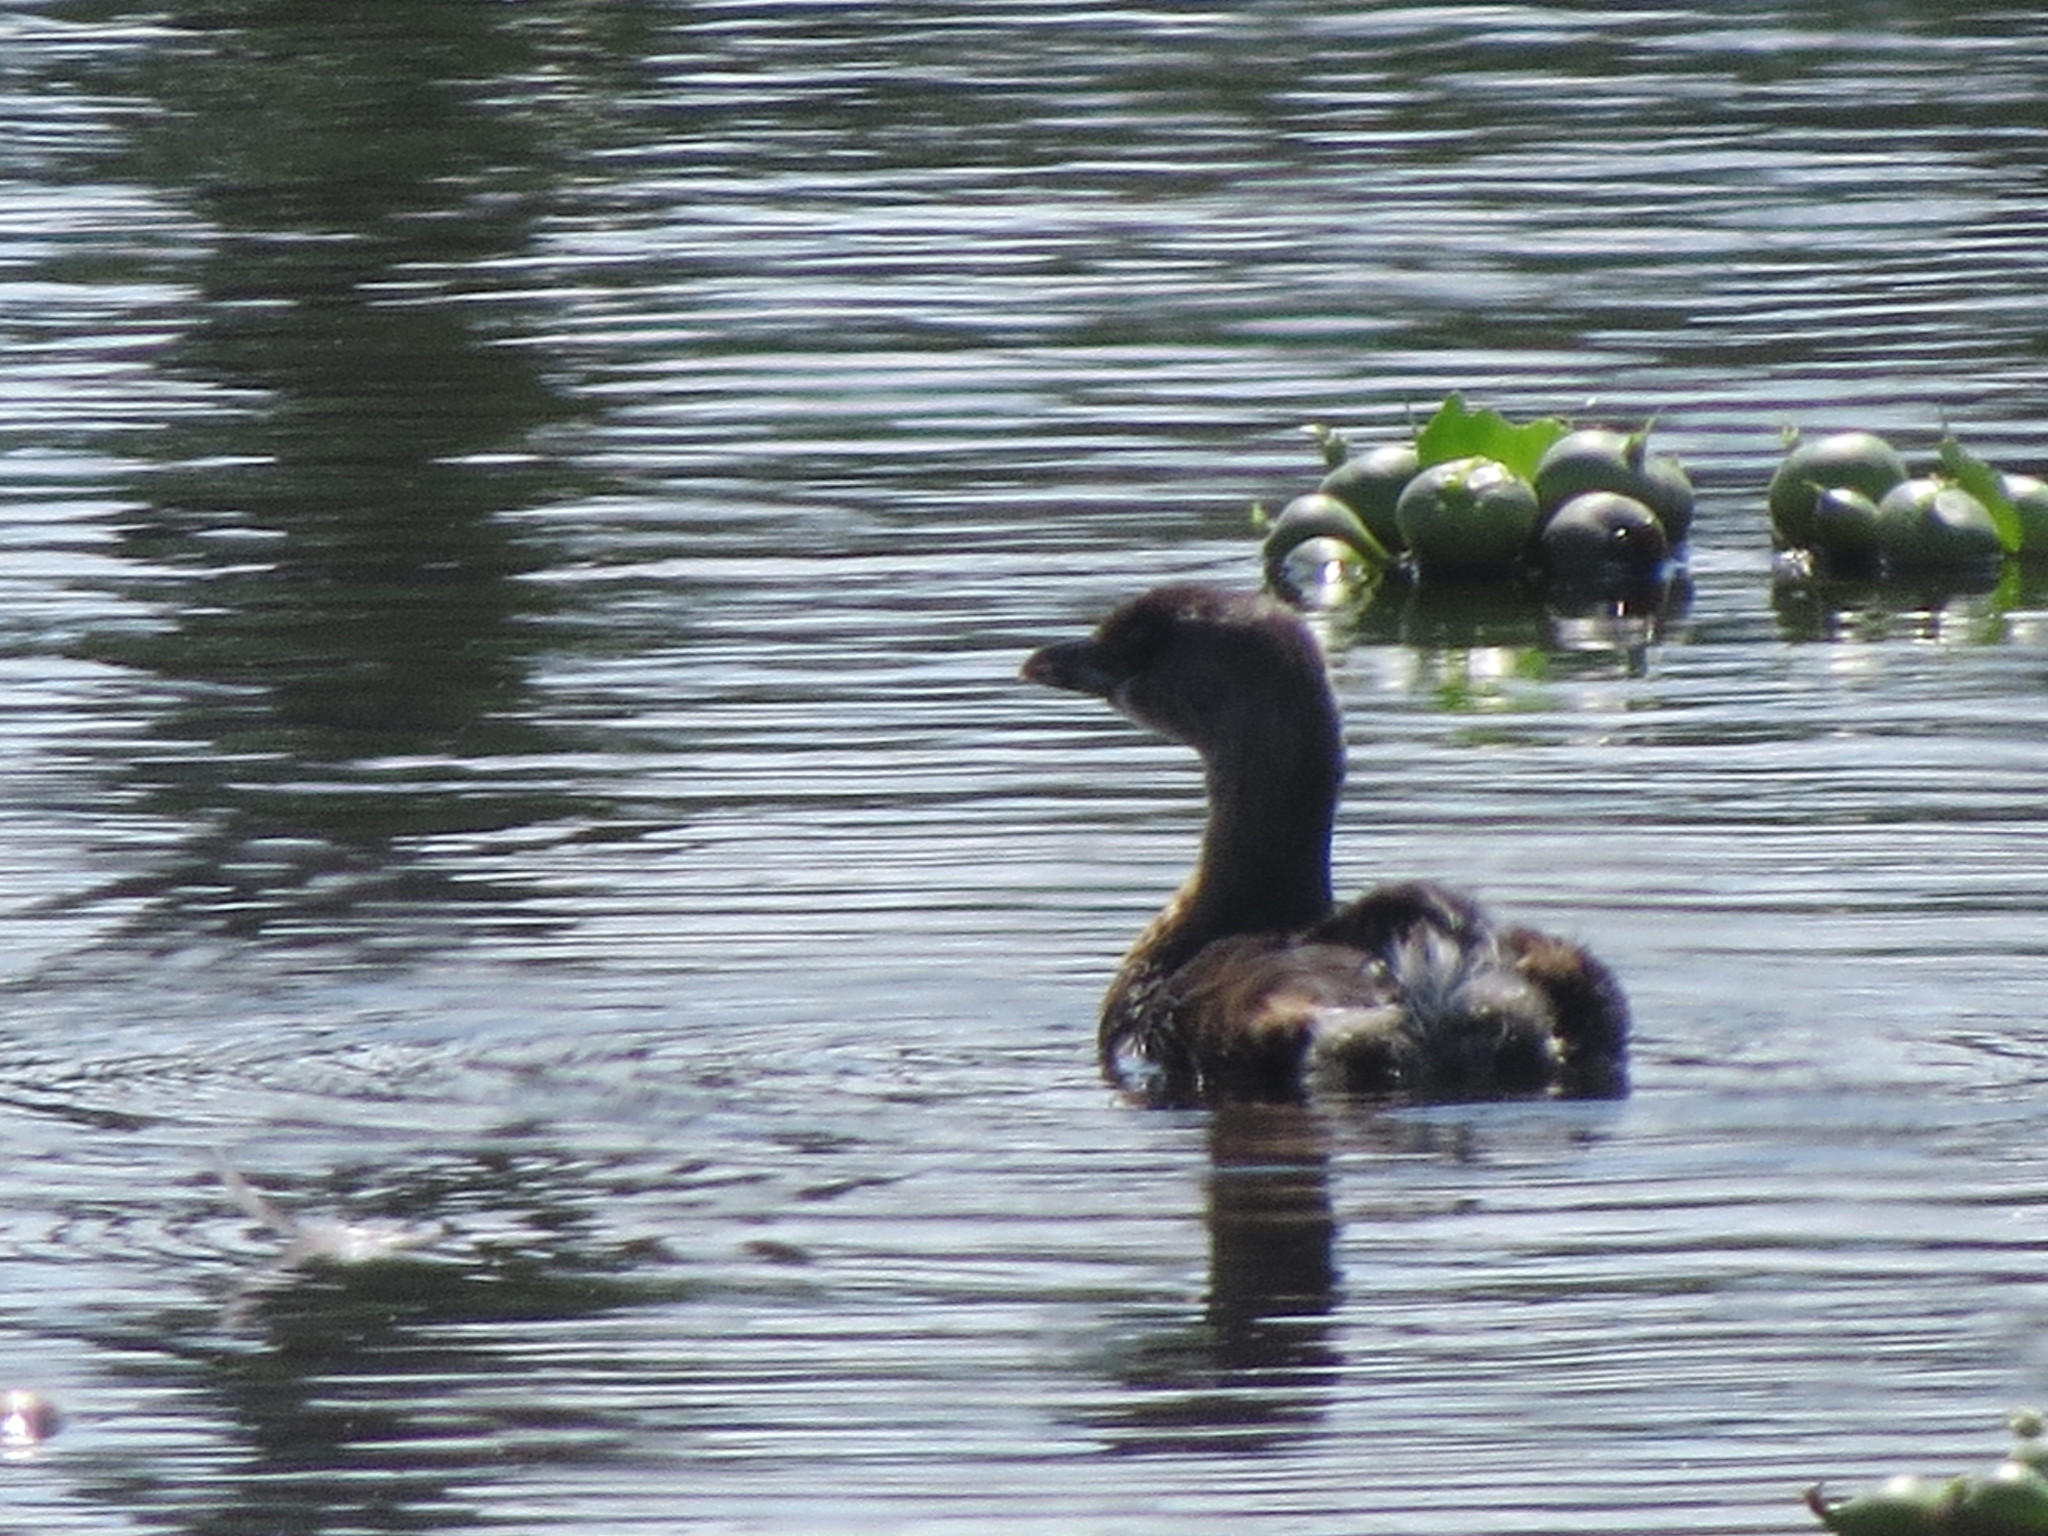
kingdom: Animalia
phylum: Chordata
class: Aves
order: Podicipediformes
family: Podicipedidae
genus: Podilymbus
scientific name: Podilymbus podiceps
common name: Pied-billed grebe
